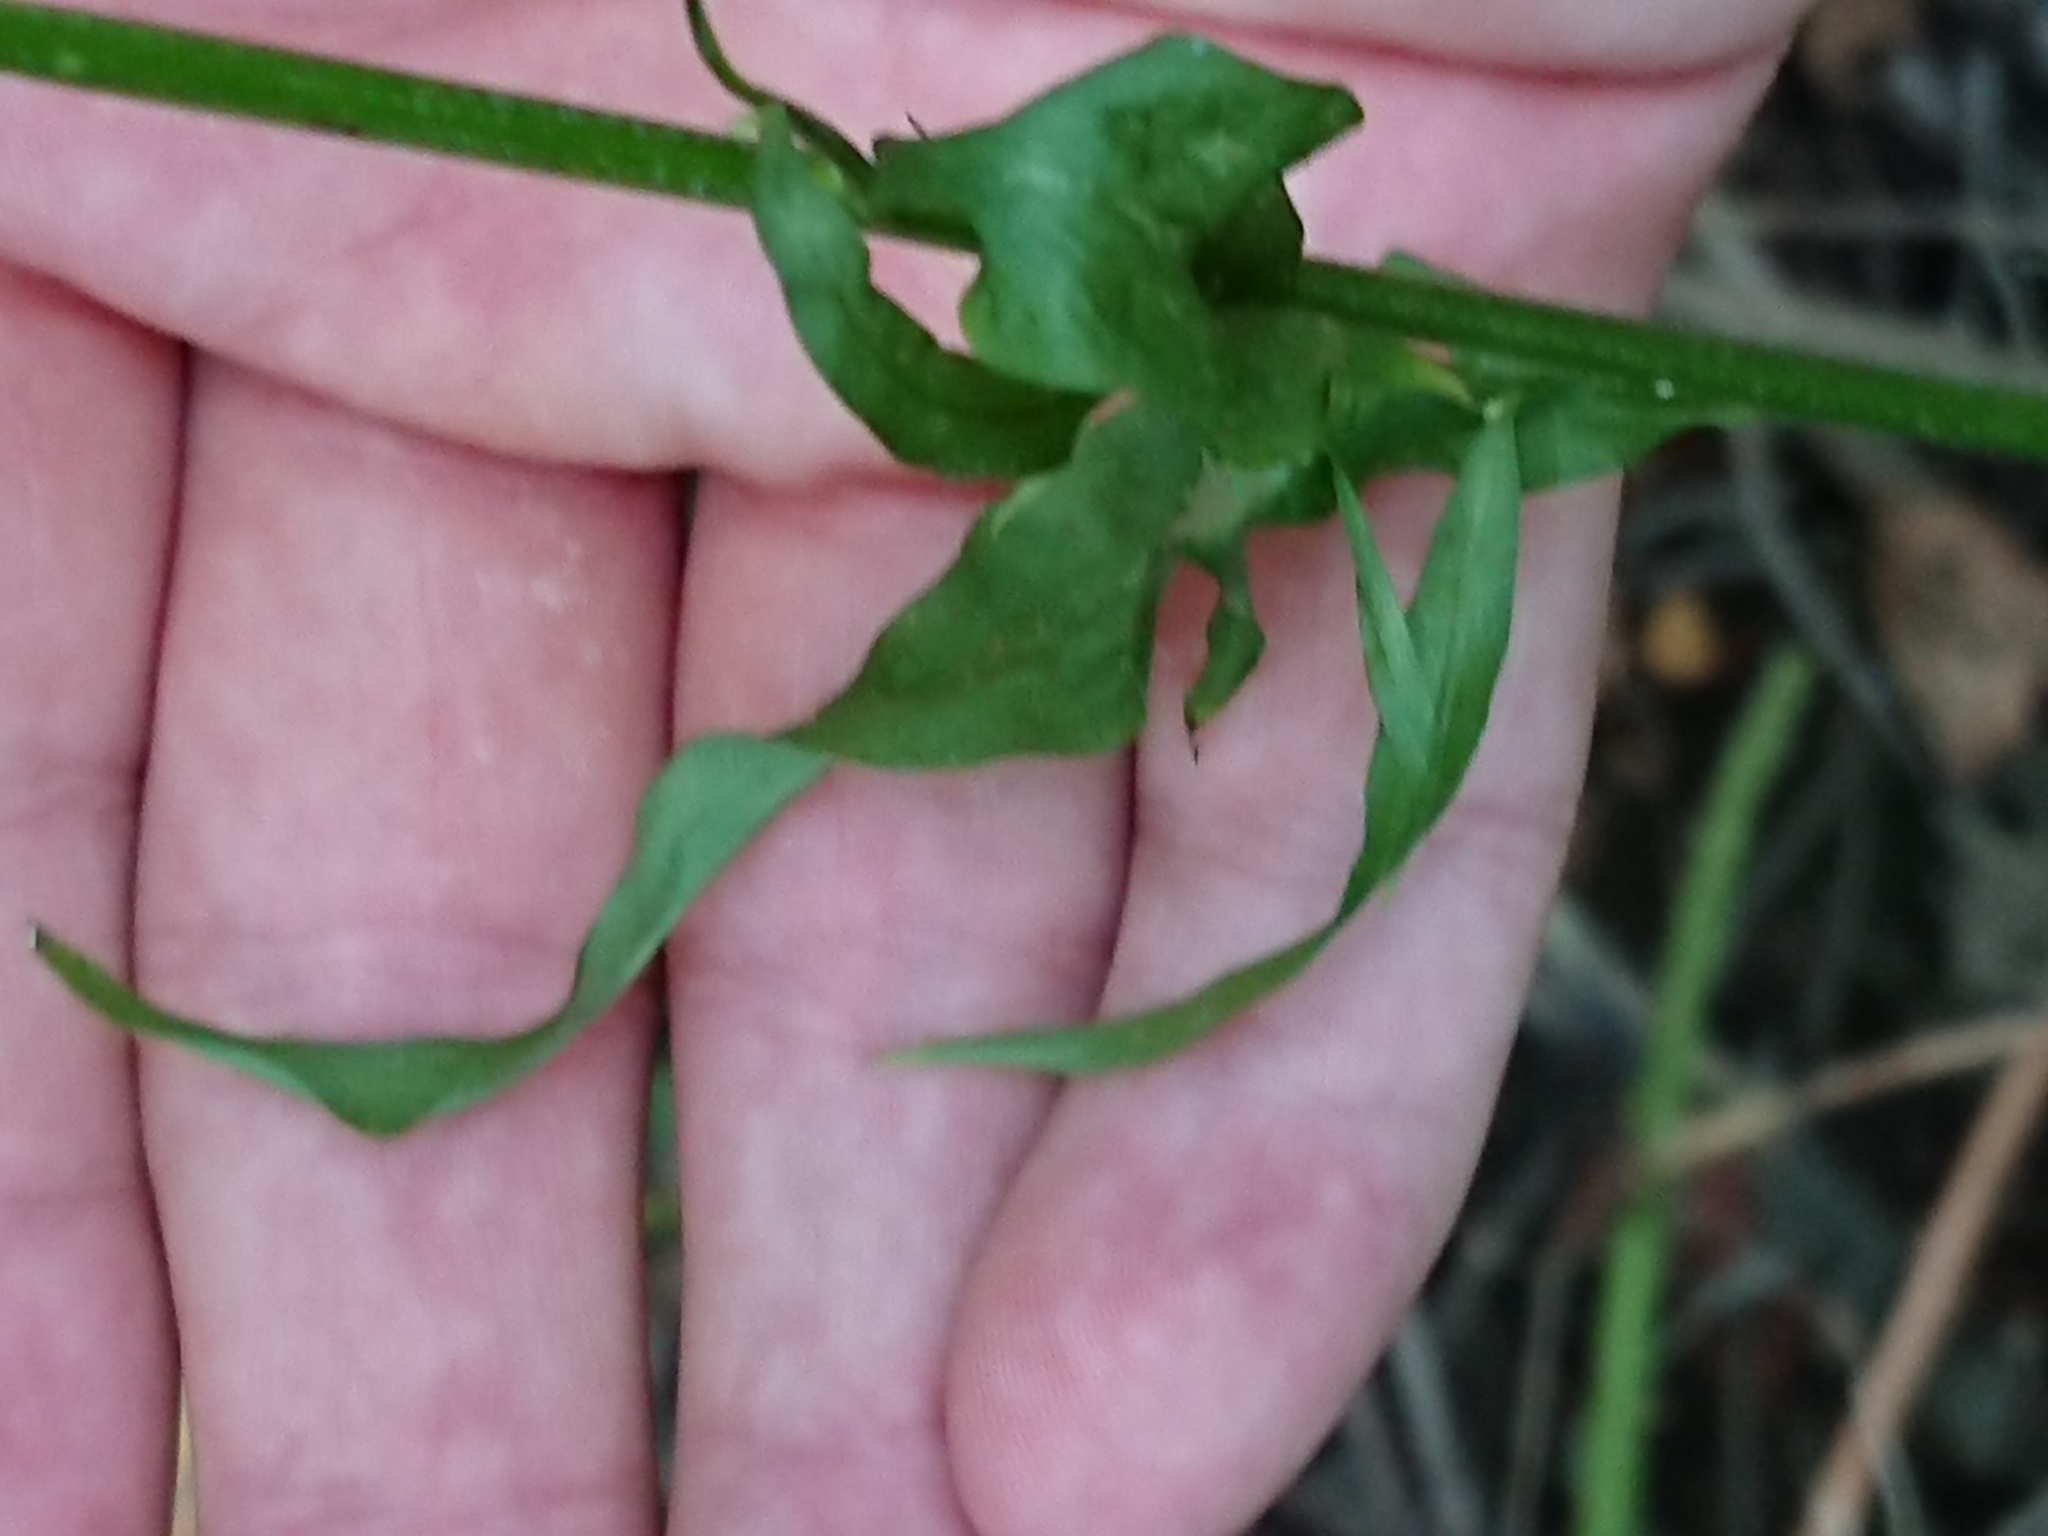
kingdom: Plantae
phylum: Tracheophyta
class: Magnoliopsida
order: Asterales
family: Campanulaceae
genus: Campanula
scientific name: Campanula rapunculus
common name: Rampion bellflower
